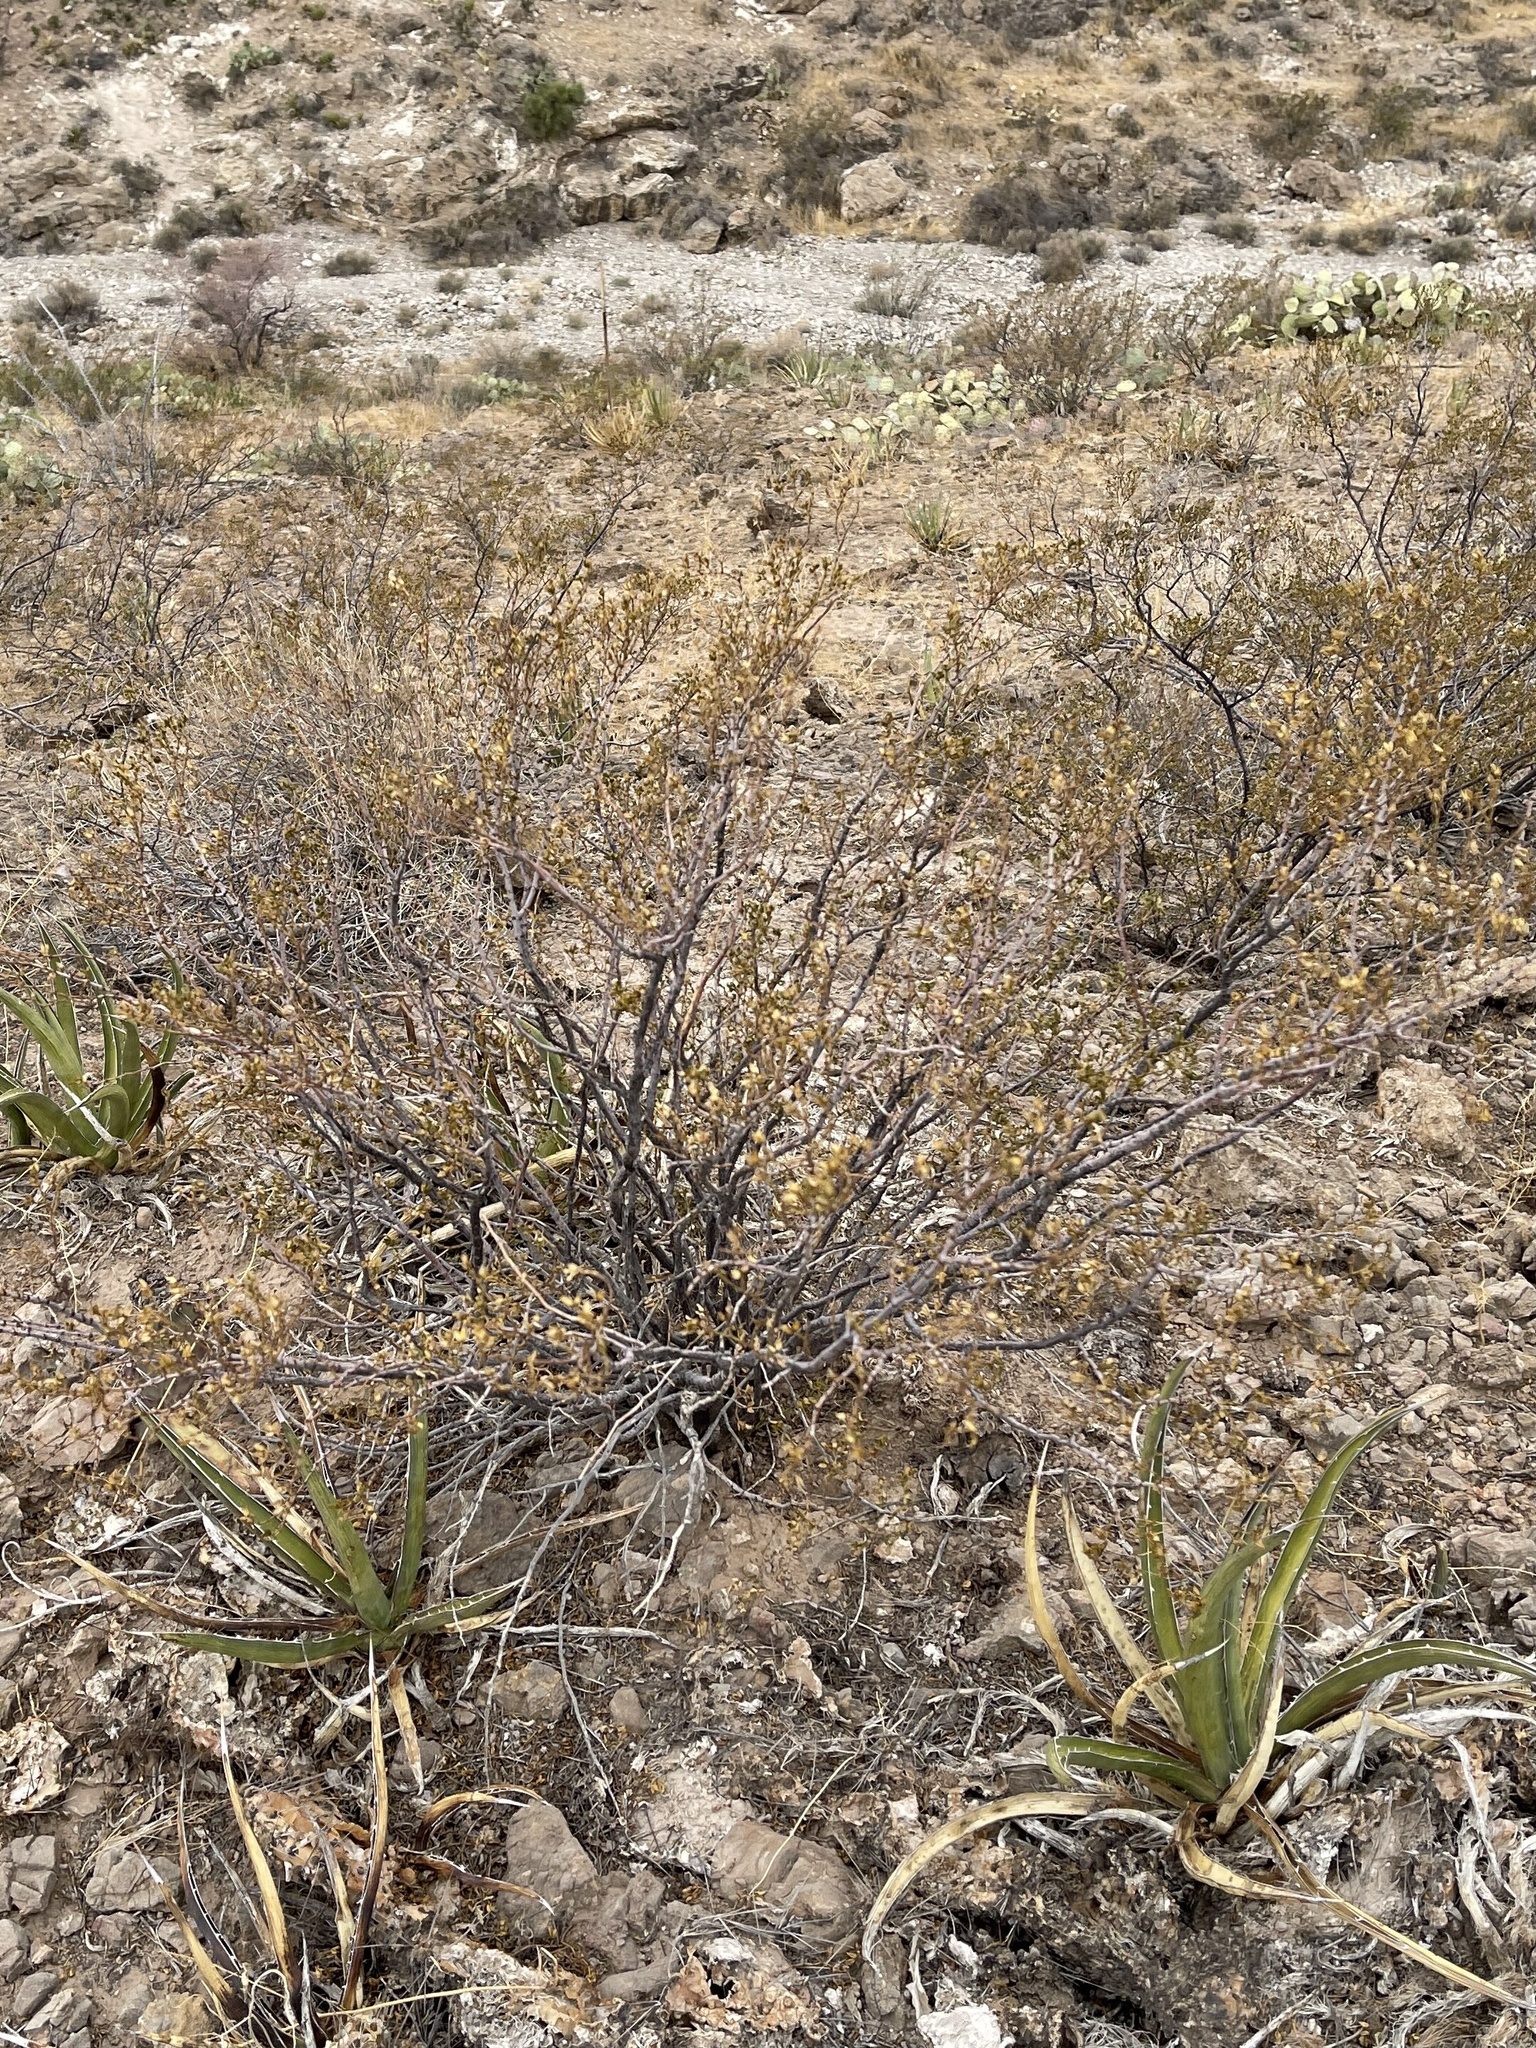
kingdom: Plantae
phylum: Tracheophyta
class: Magnoliopsida
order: Zygophyllales
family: Zygophyllaceae
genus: Larrea
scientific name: Larrea tridentata
